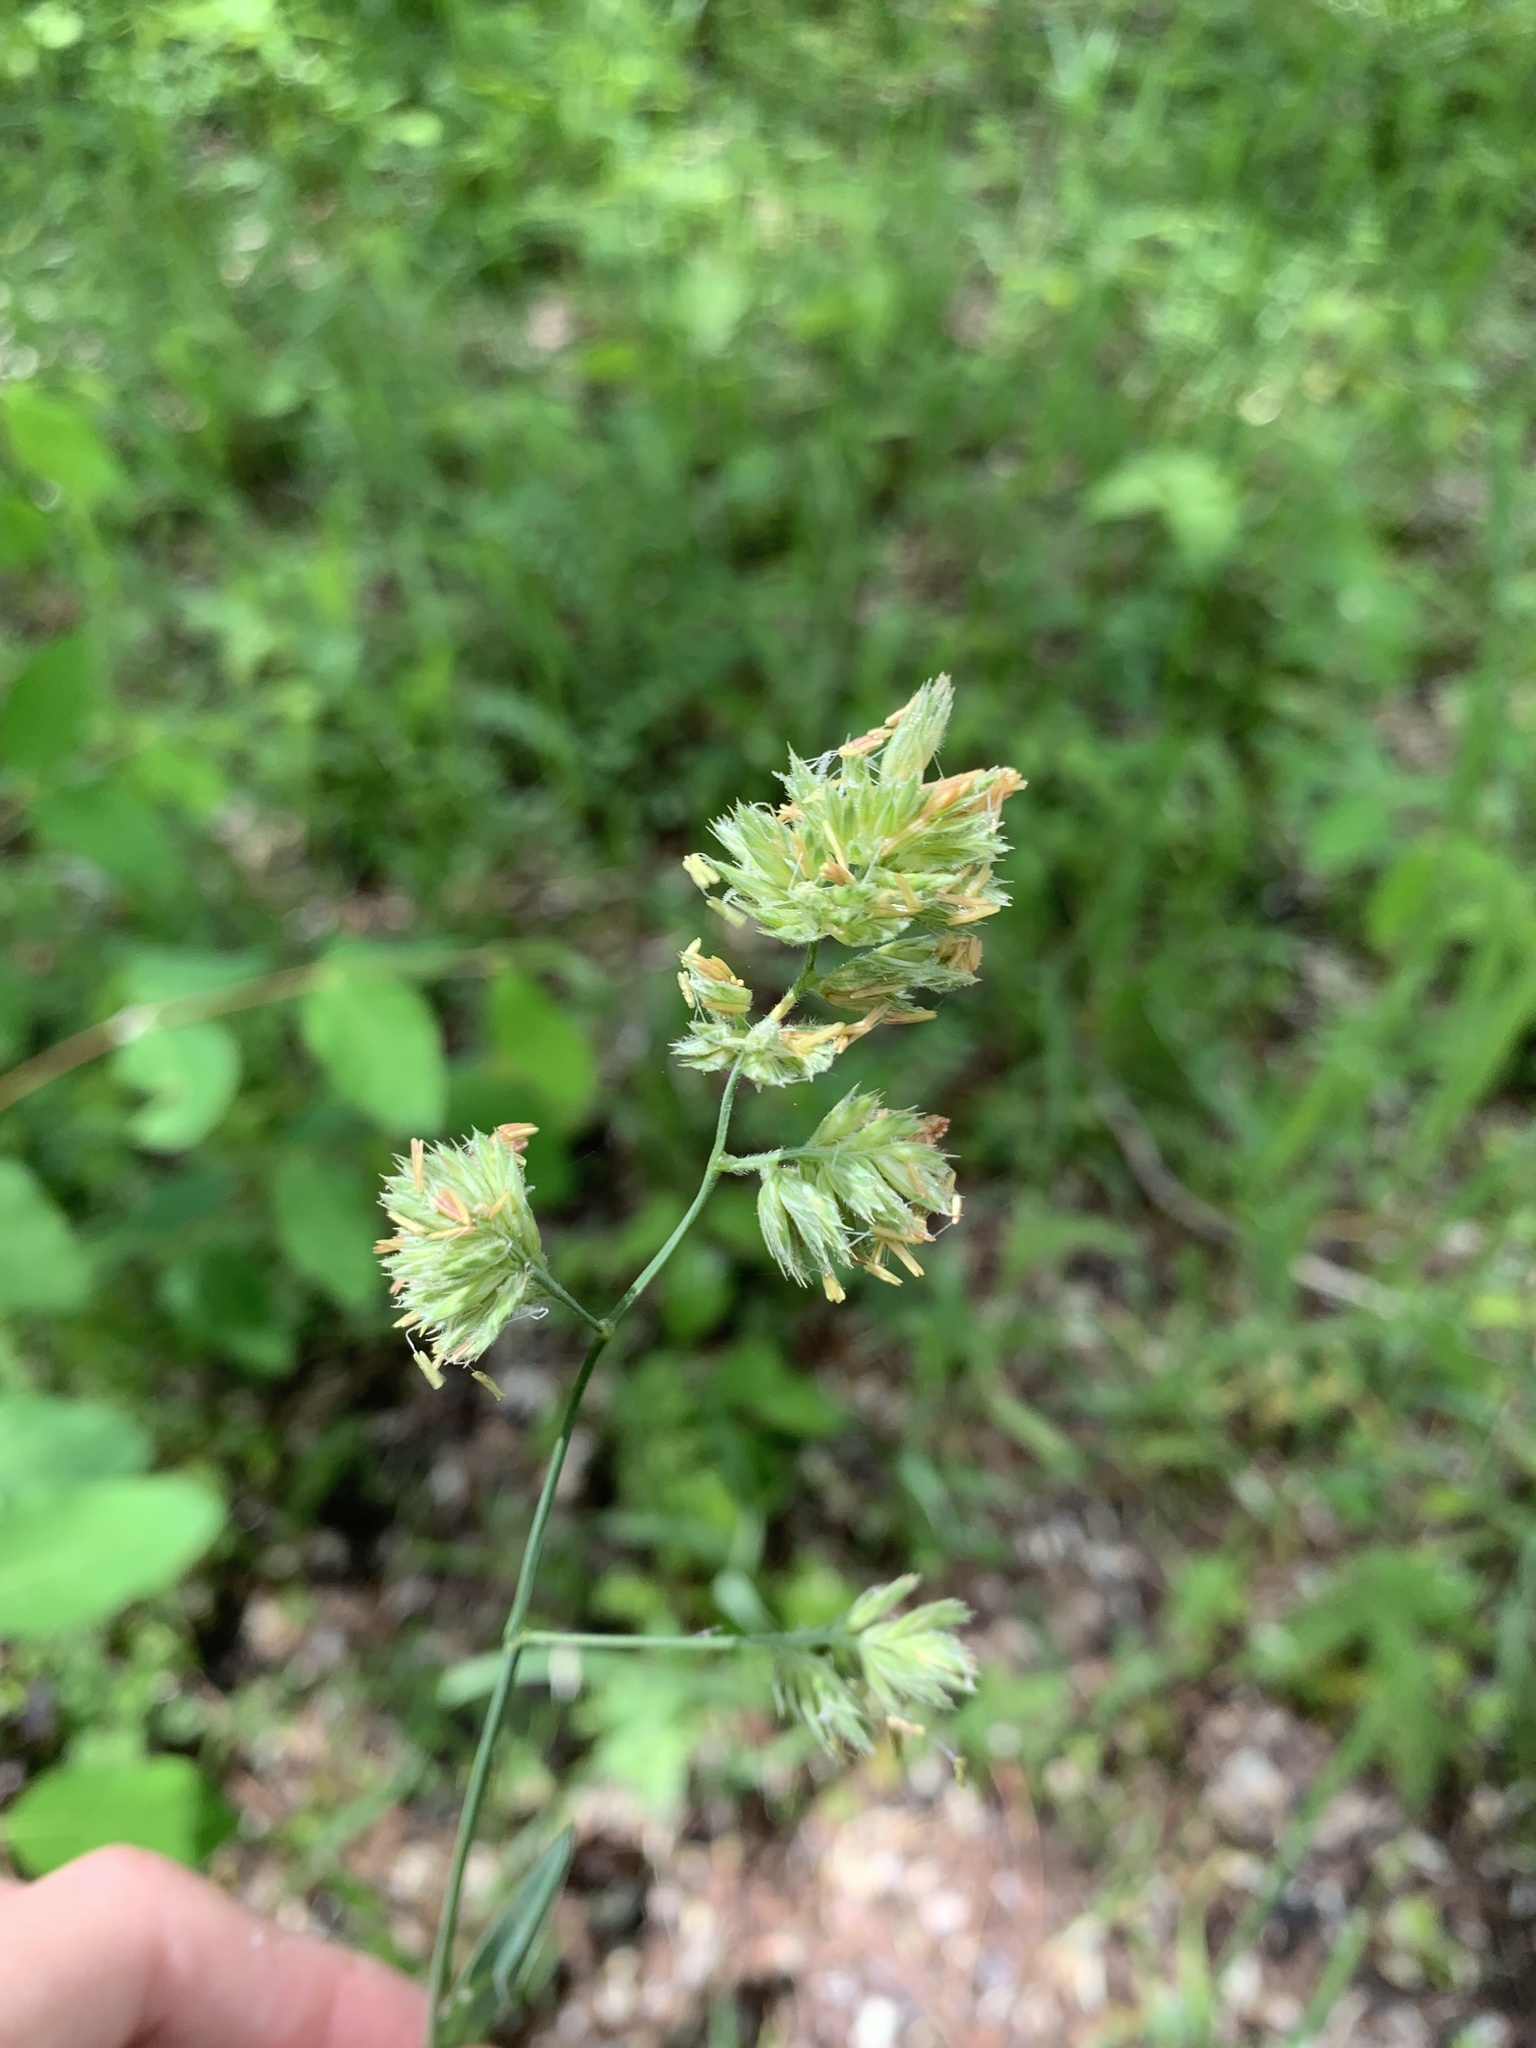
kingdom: Plantae
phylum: Tracheophyta
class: Liliopsida
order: Poales
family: Poaceae
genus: Dactylis
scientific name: Dactylis glomerata
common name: Orchardgrass
